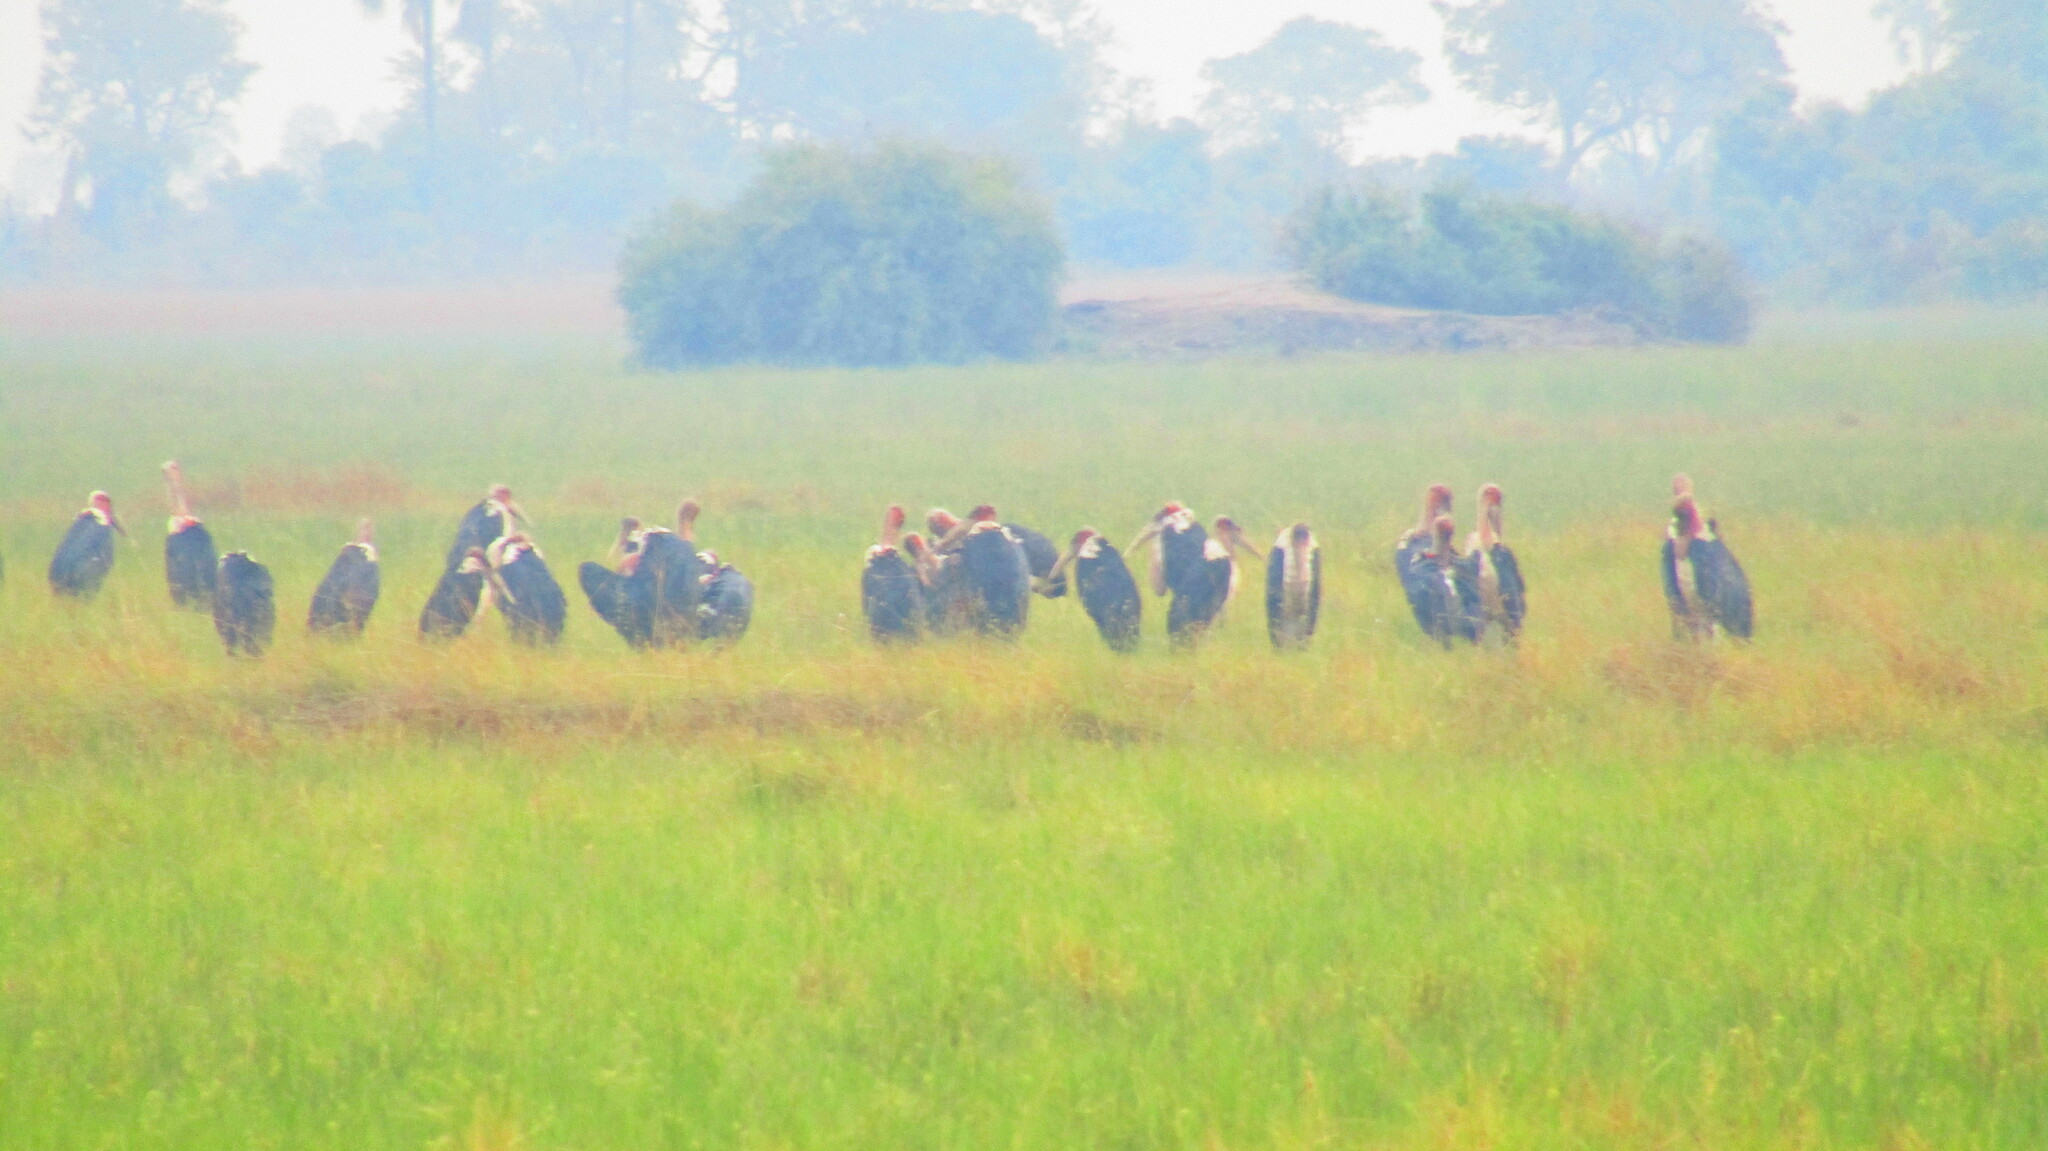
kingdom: Animalia
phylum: Chordata
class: Aves
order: Ciconiiformes
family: Ciconiidae
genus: Leptoptilos
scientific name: Leptoptilos crumenifer
